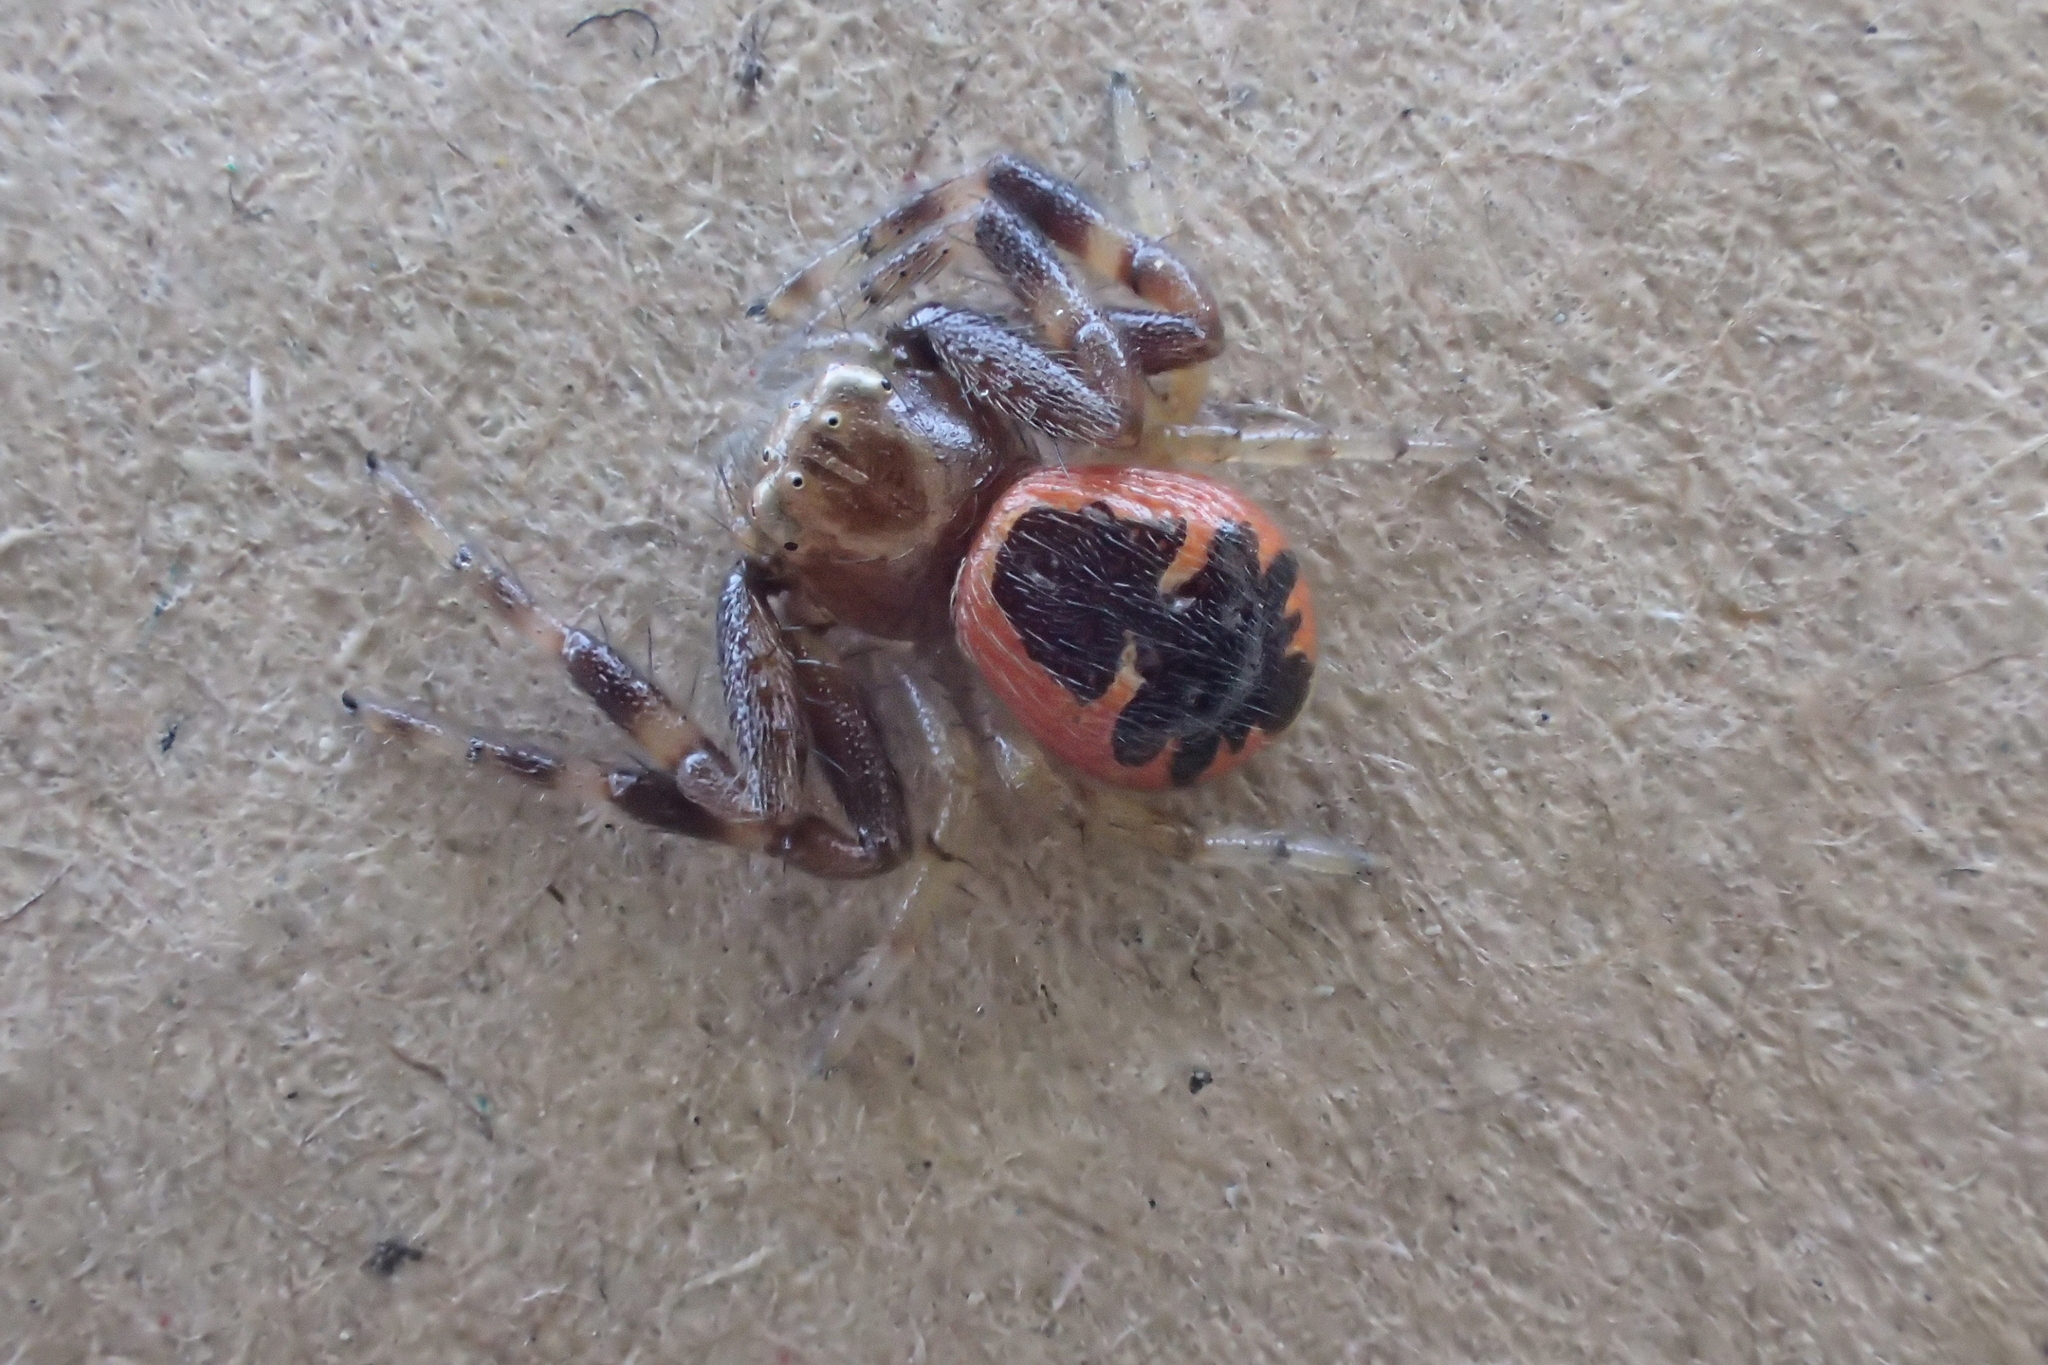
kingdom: Animalia
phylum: Arthropoda
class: Arachnida
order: Araneae
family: Thomisidae
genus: Synema
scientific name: Synema globosum
